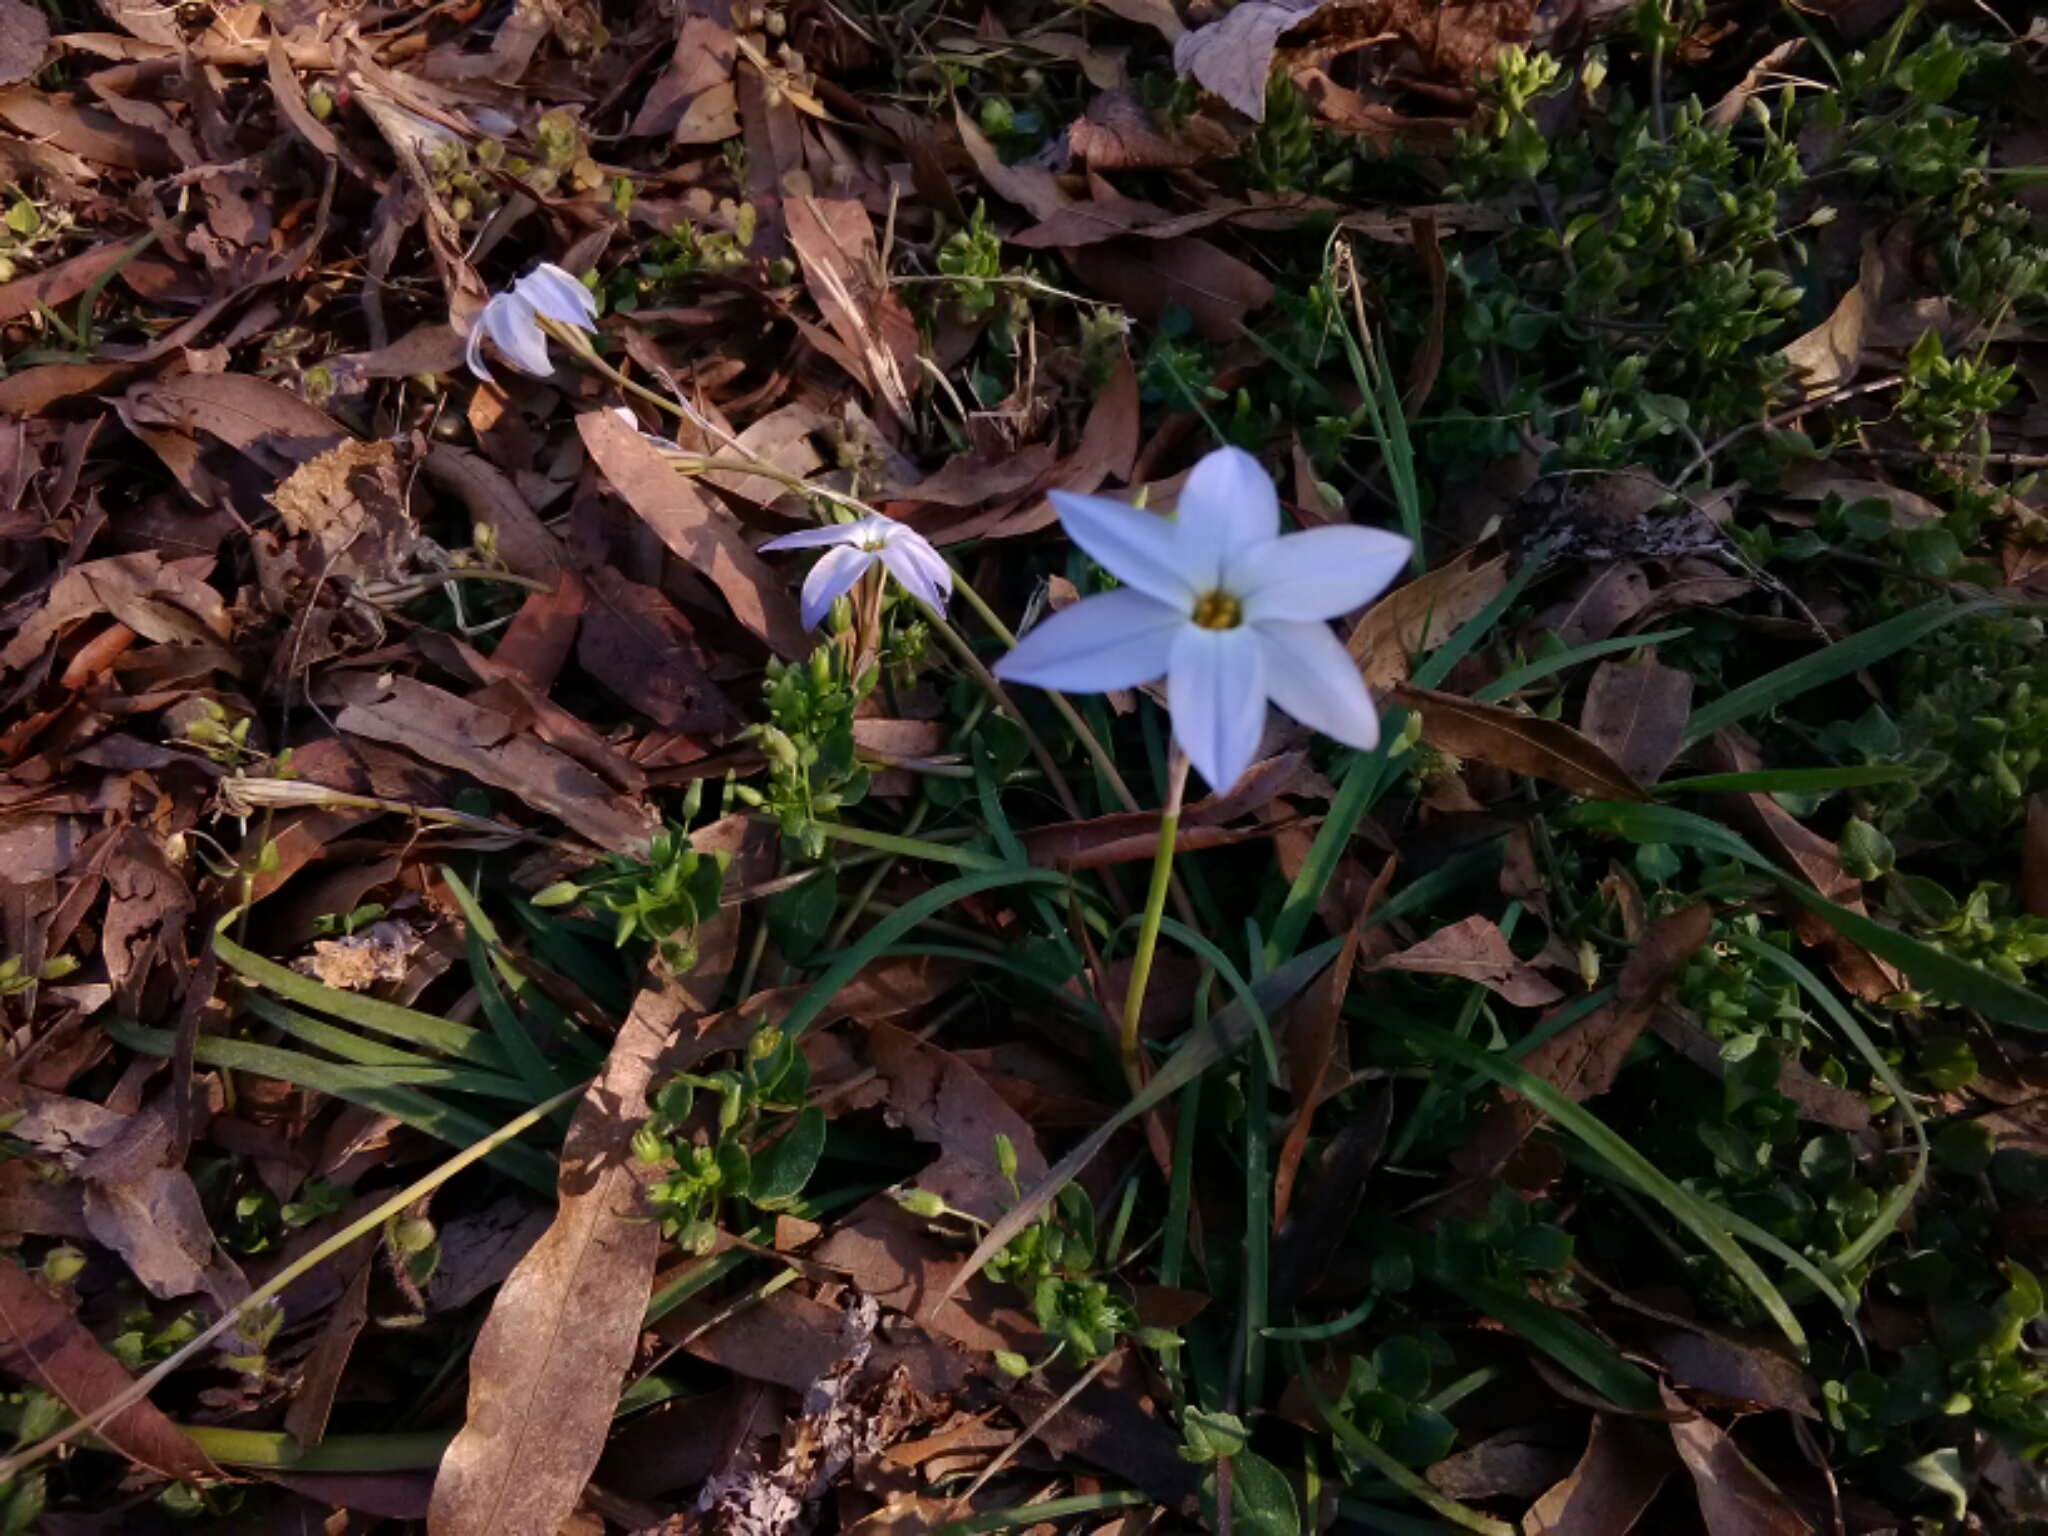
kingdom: Plantae
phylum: Tracheophyta
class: Liliopsida
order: Asparagales
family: Amaryllidaceae
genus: Ipheion
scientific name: Ipheion uniflorum
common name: Spring starflower
